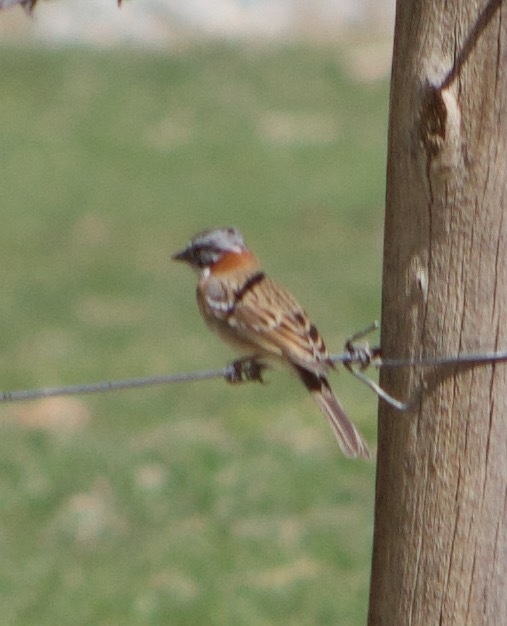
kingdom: Animalia
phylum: Chordata
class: Aves
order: Passeriformes
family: Passerellidae
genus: Zonotrichia
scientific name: Zonotrichia capensis
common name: Rufous-collared sparrow
